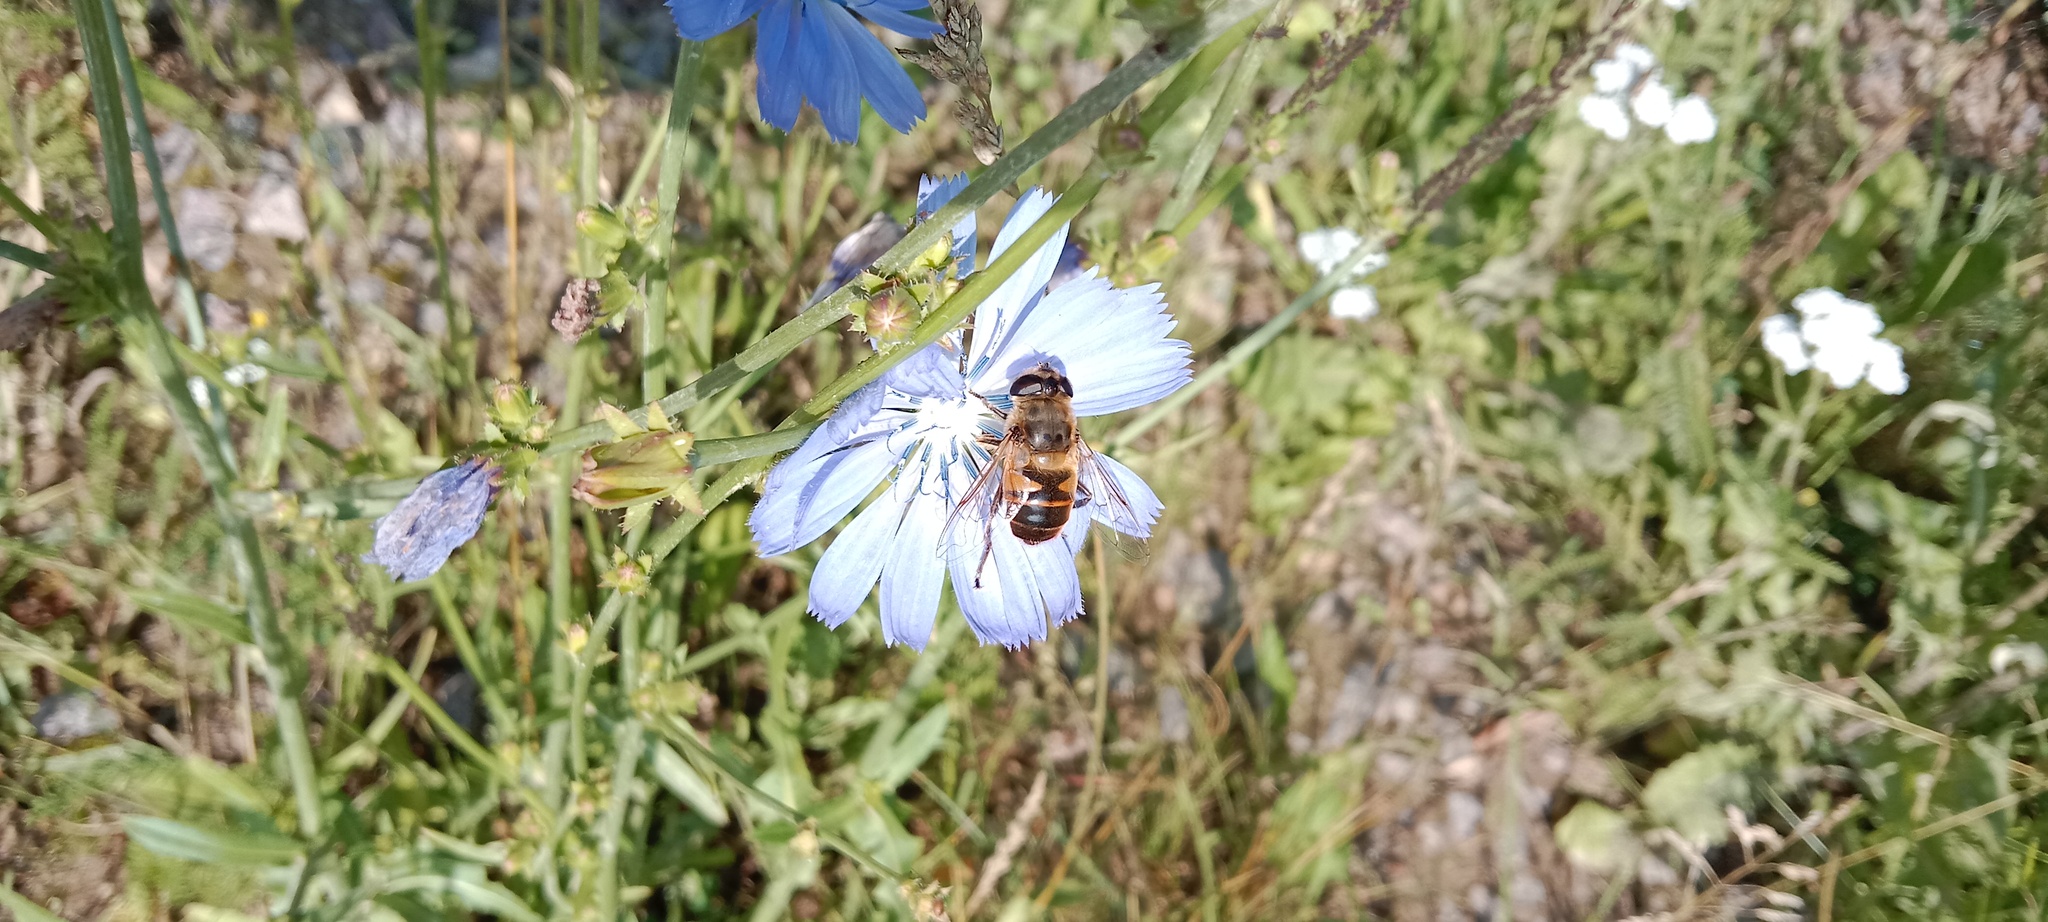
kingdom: Animalia
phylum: Arthropoda
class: Insecta
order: Diptera
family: Syrphidae
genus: Eristalis
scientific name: Eristalis tenax
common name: Drone fly
